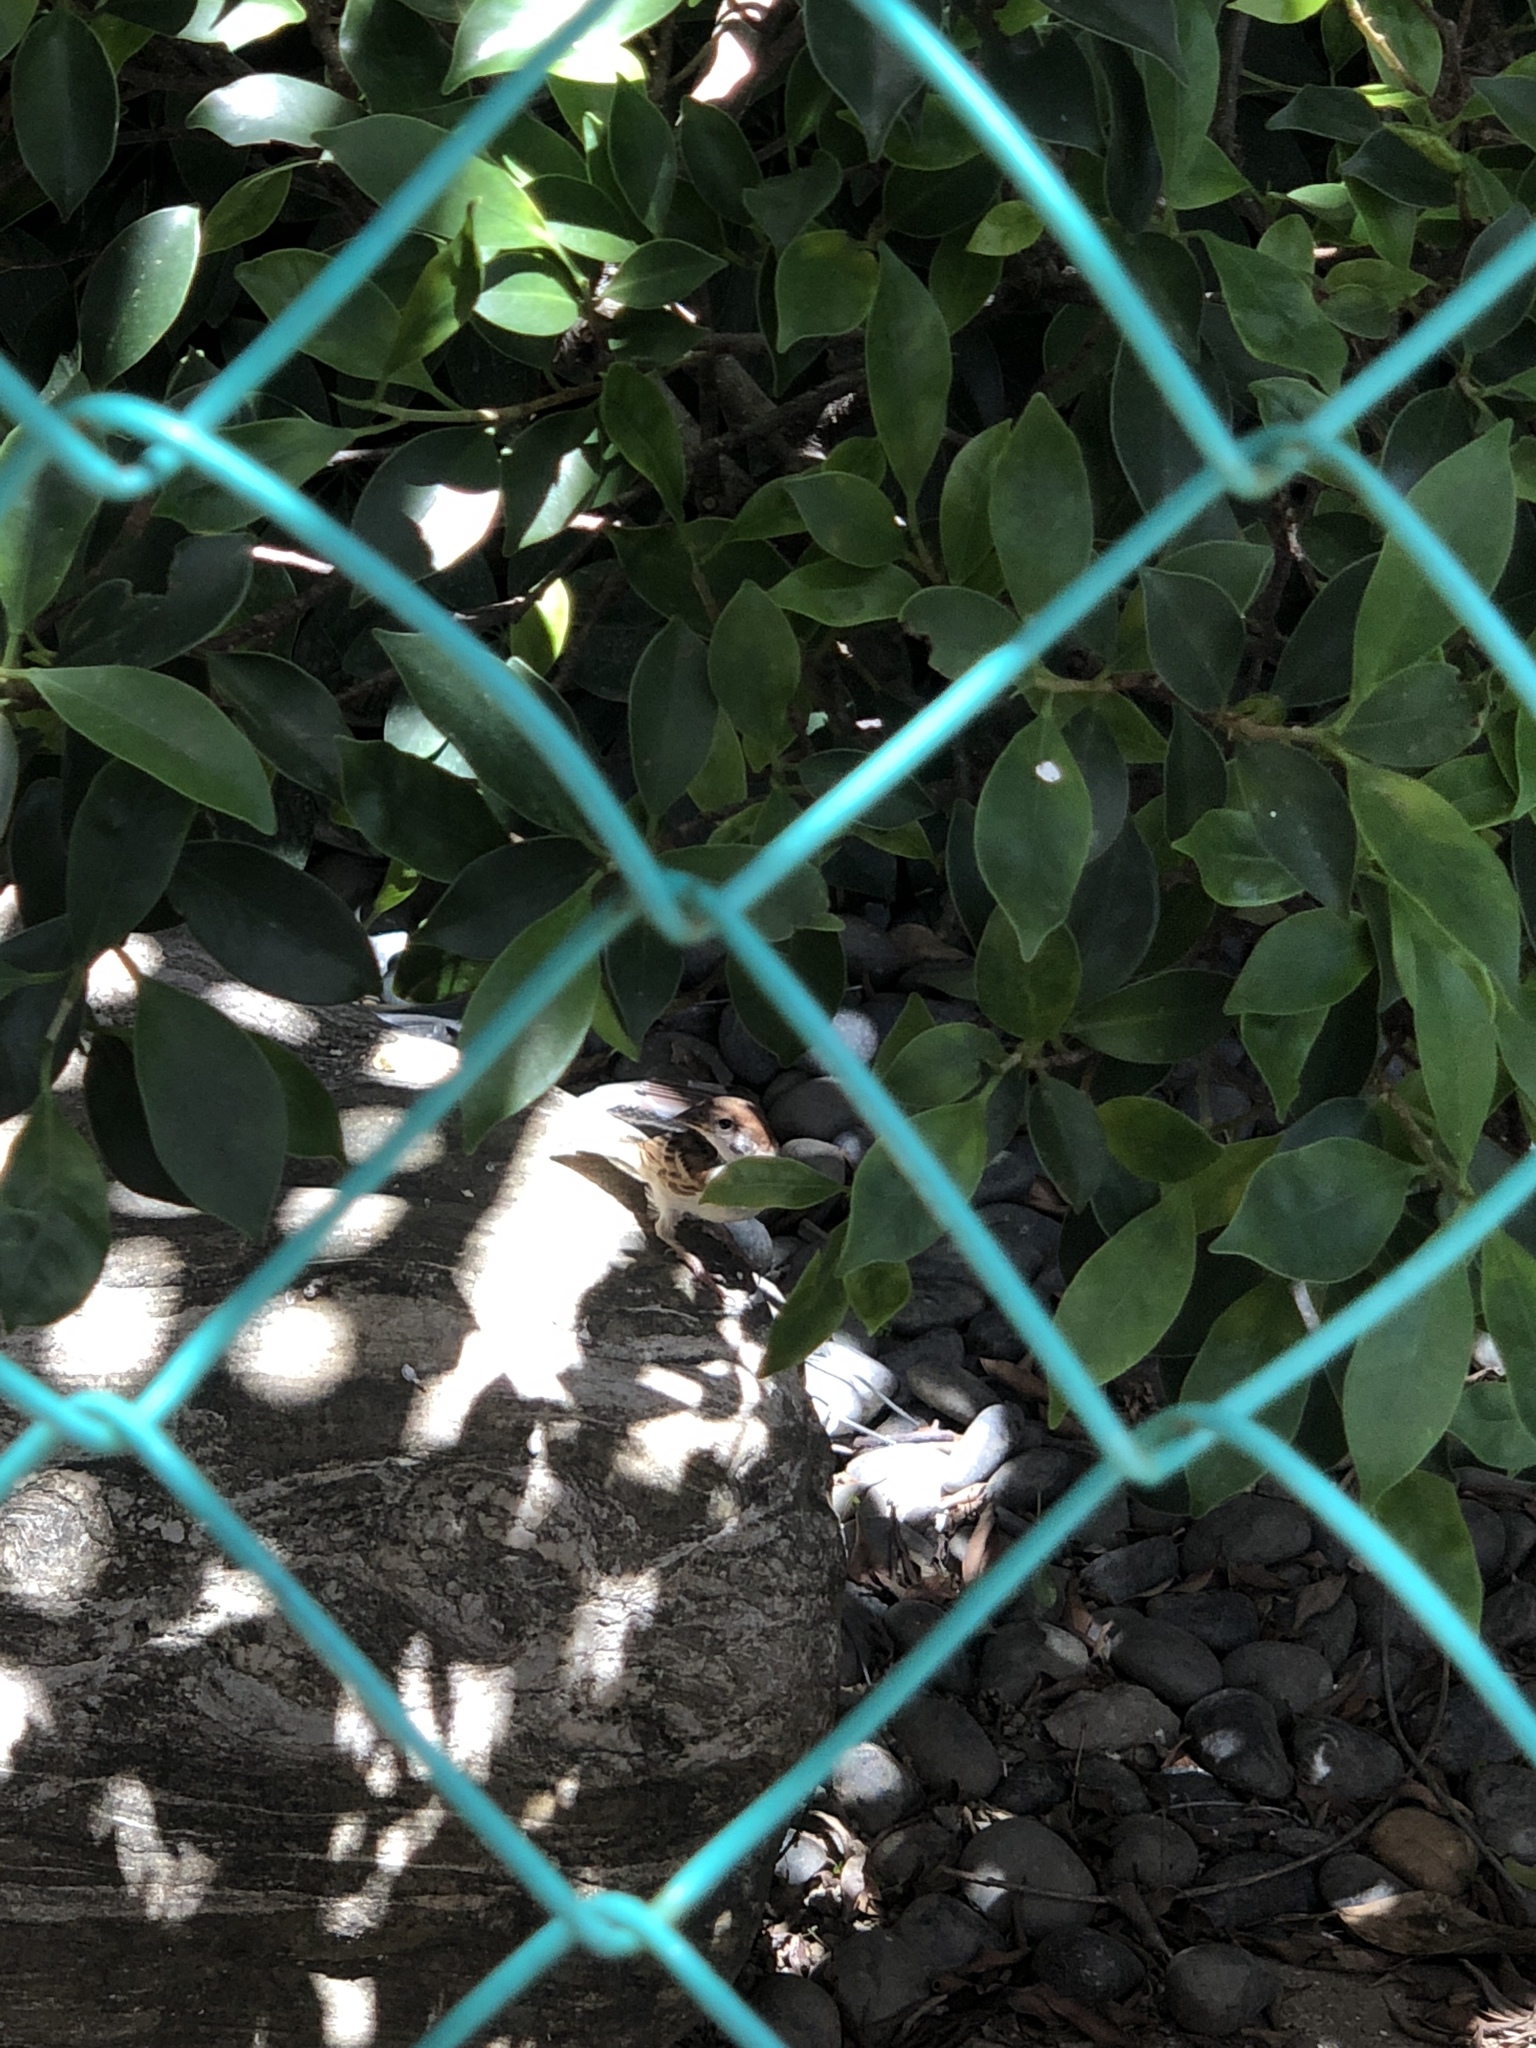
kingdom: Animalia
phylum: Chordata
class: Aves
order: Passeriformes
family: Passeridae
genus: Passer
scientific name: Passer montanus
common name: Eurasian tree sparrow
